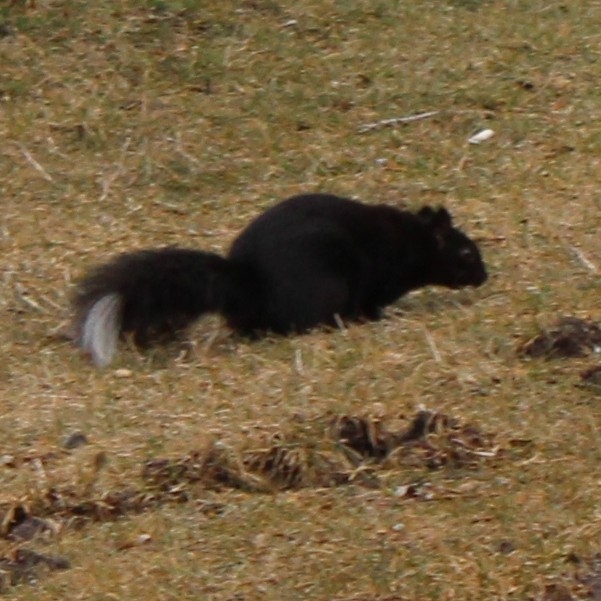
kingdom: Animalia
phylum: Chordata
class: Mammalia
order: Rodentia
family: Sciuridae
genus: Sciurus
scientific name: Sciurus carolinensis
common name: Eastern gray squirrel
